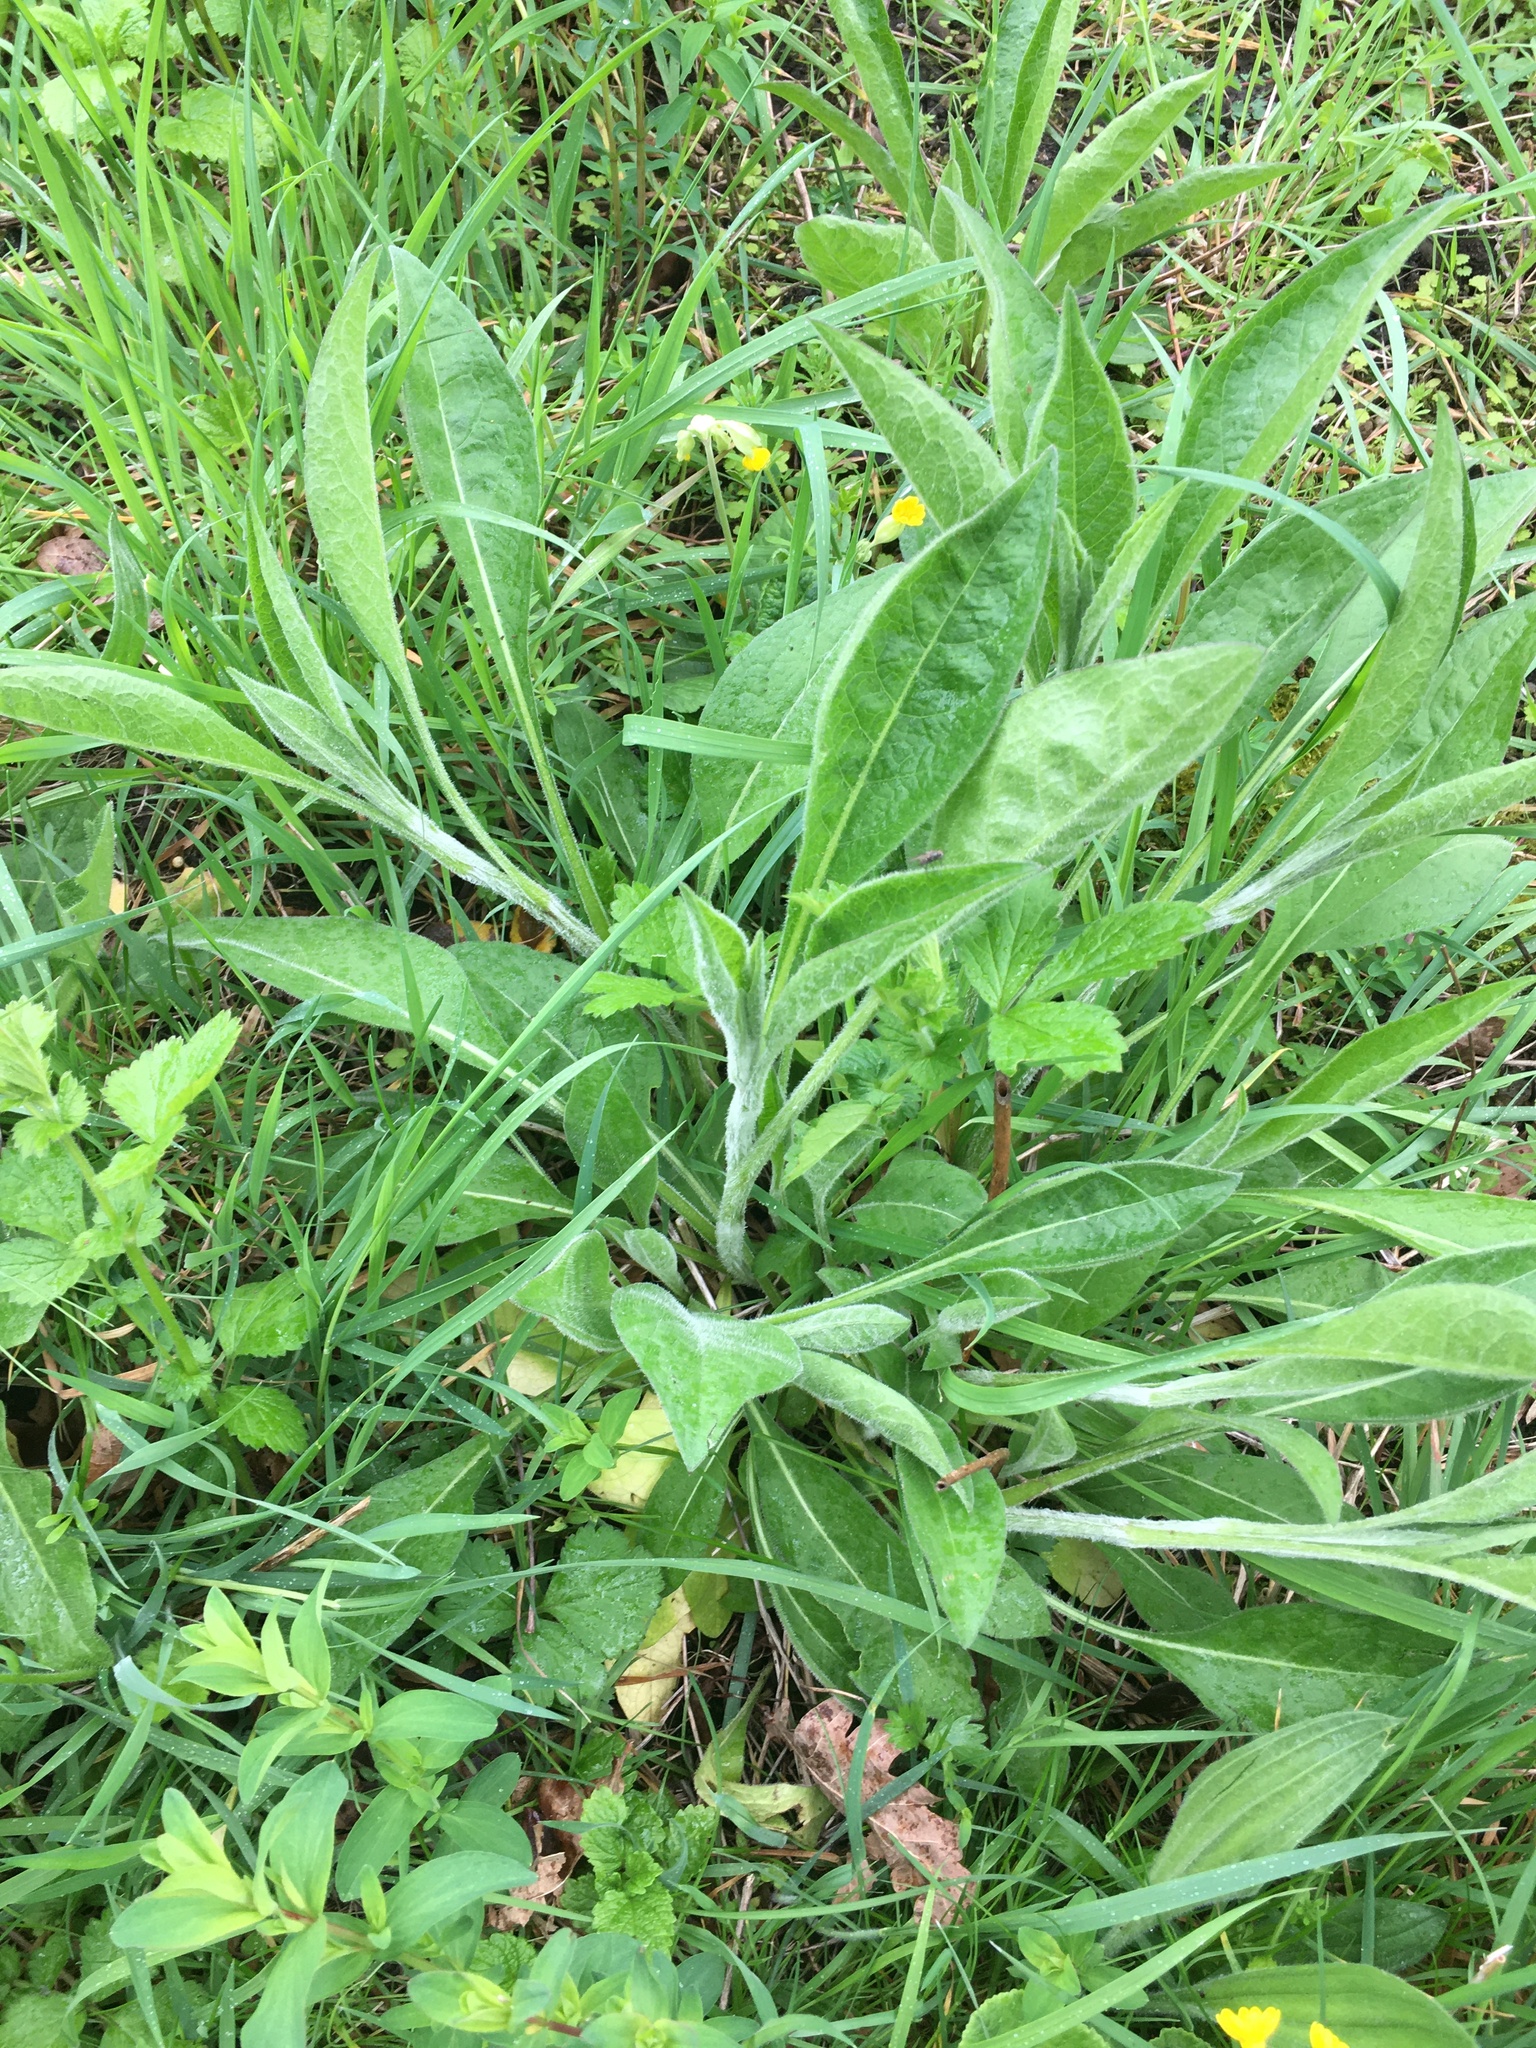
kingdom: Plantae
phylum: Tracheophyta
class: Magnoliopsida
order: Asterales
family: Asteraceae
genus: Centaurea
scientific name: Centaurea nigra
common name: Lesser knapweed
